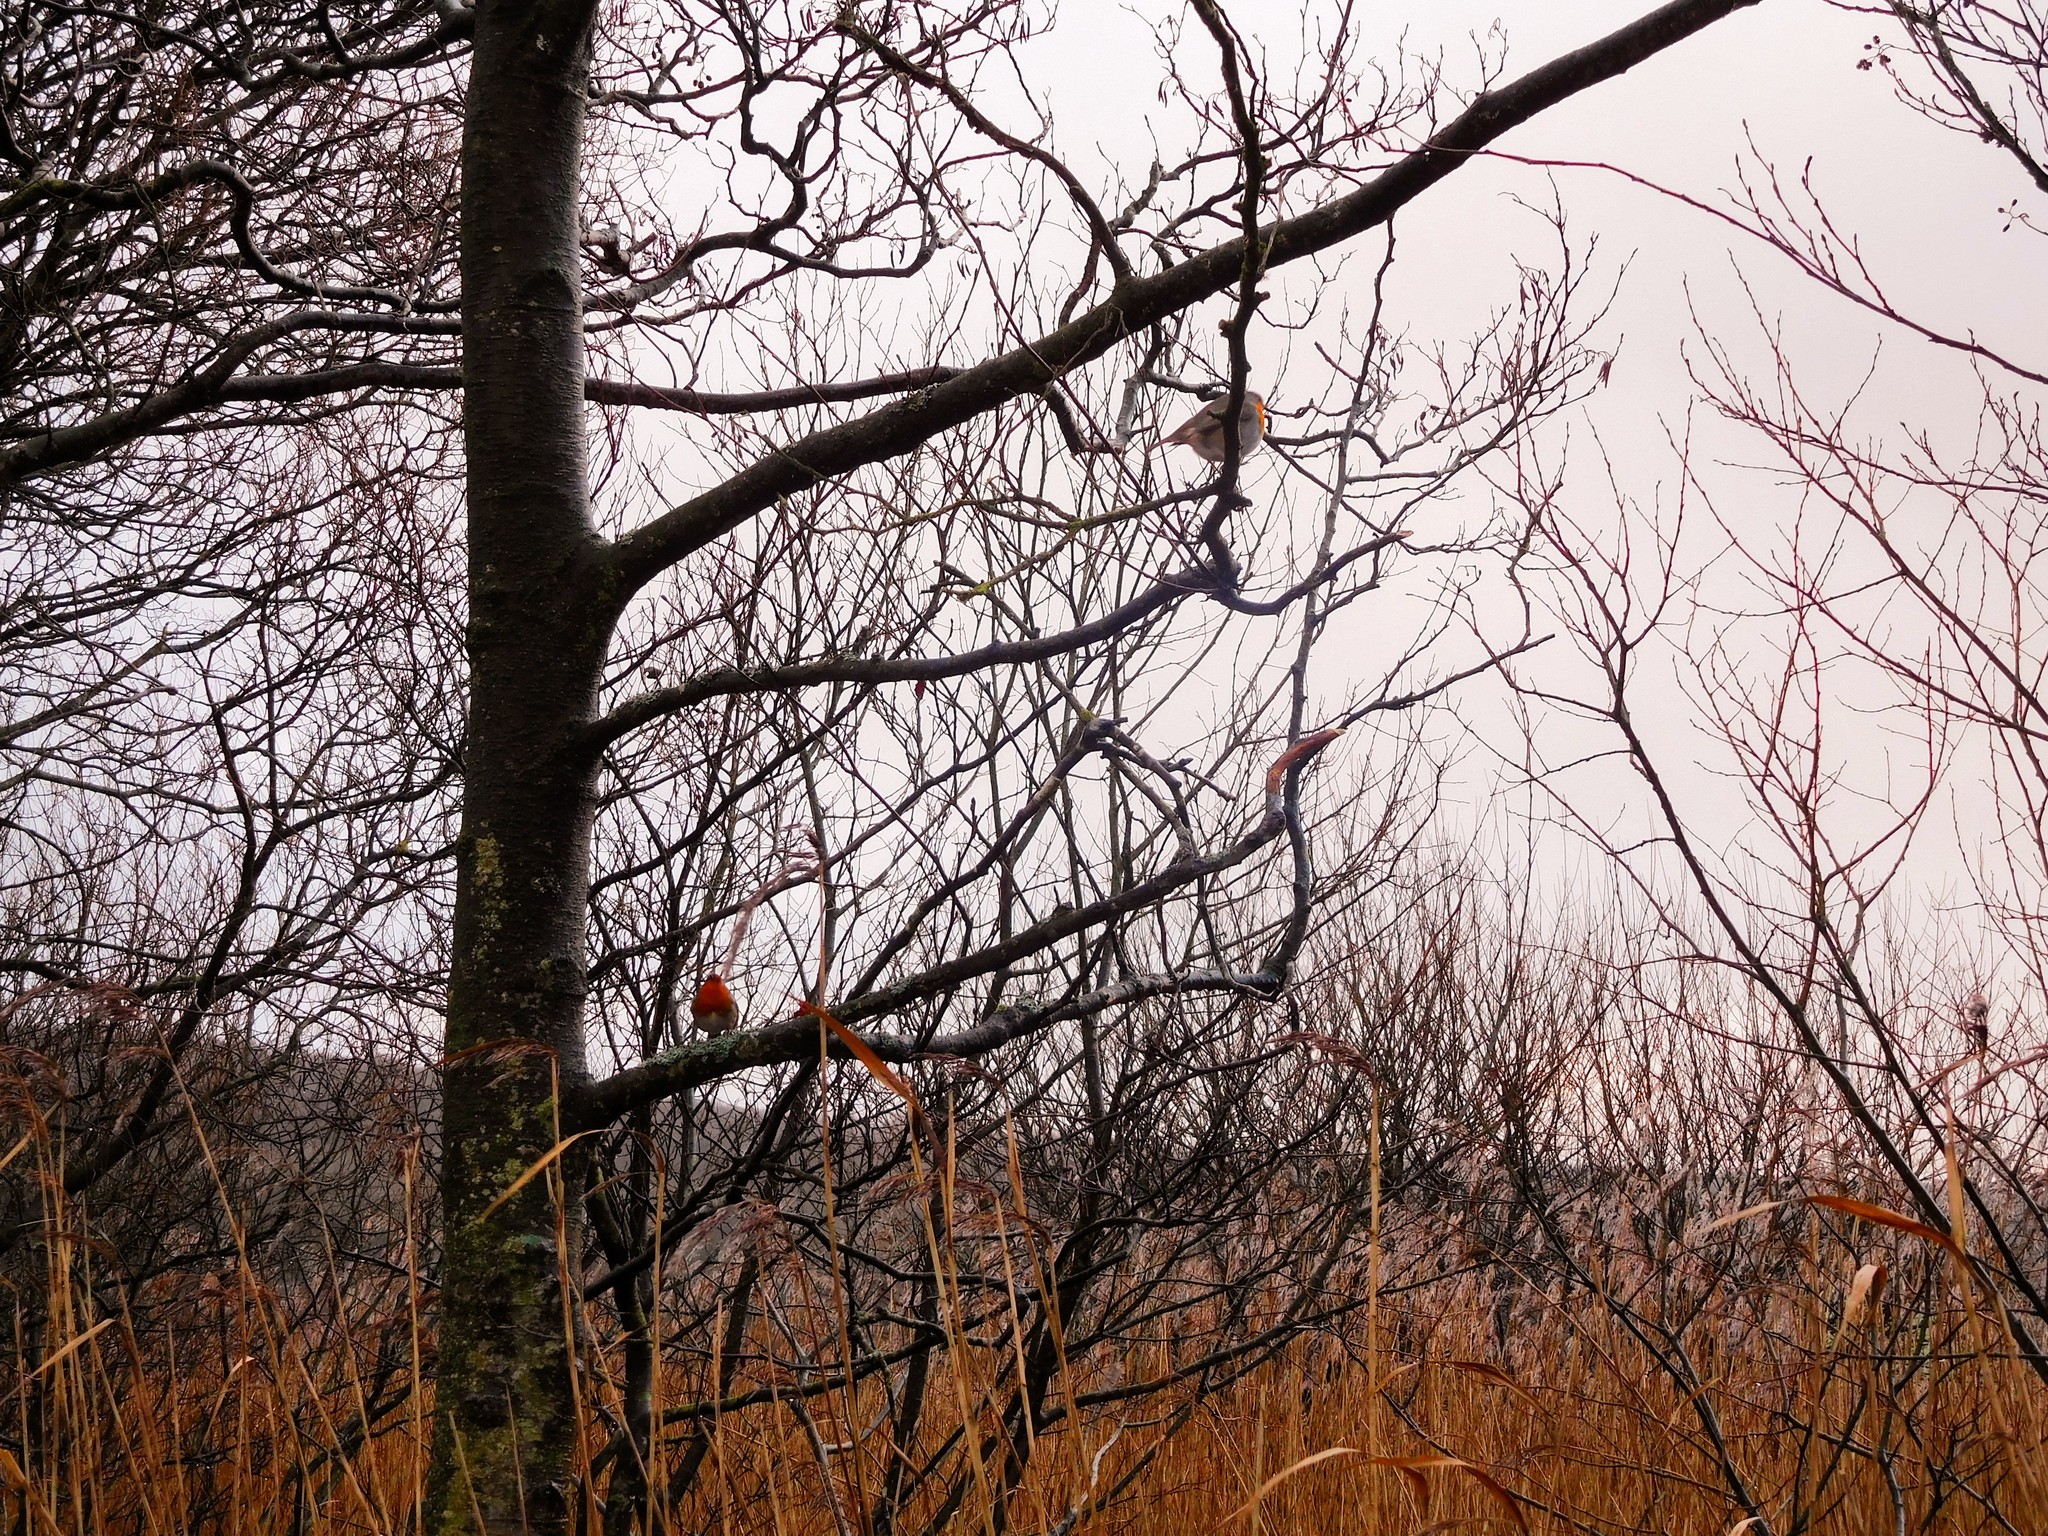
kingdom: Animalia
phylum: Chordata
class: Aves
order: Passeriformes
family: Muscicapidae
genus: Erithacus
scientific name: Erithacus rubecula
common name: European robin
